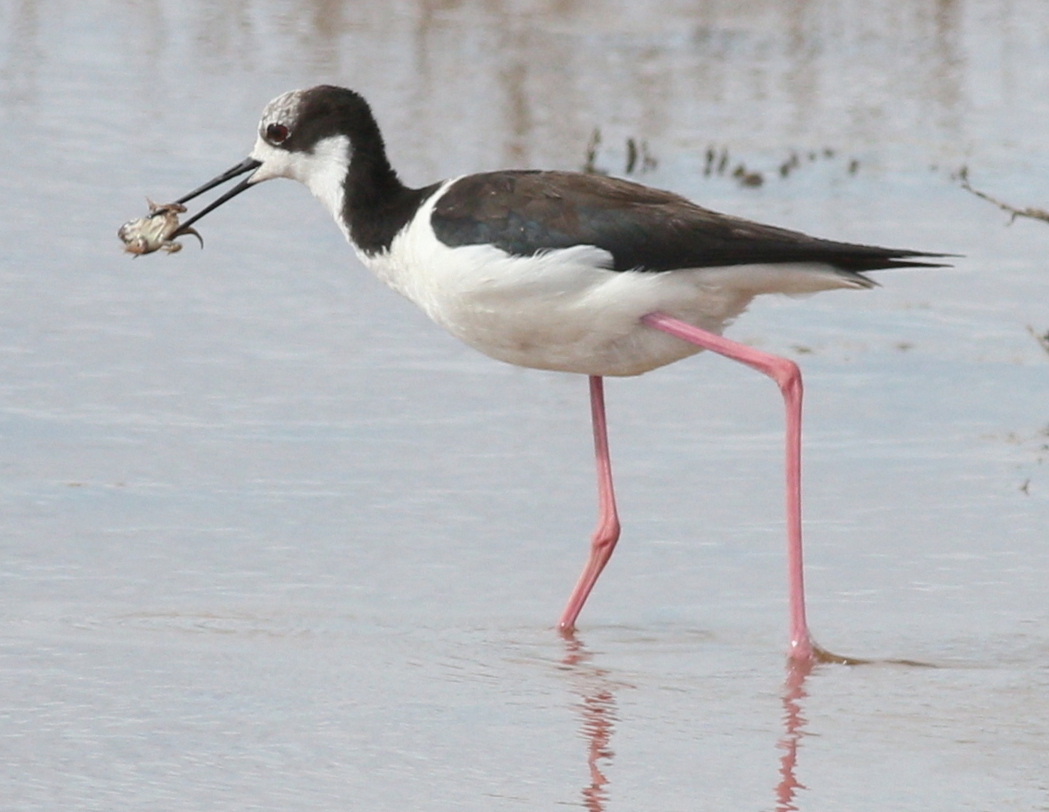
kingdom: Animalia
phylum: Chordata
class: Aves
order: Charadriiformes
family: Recurvirostridae
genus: Himantopus
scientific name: Himantopus mexicanus
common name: Black-necked stilt
